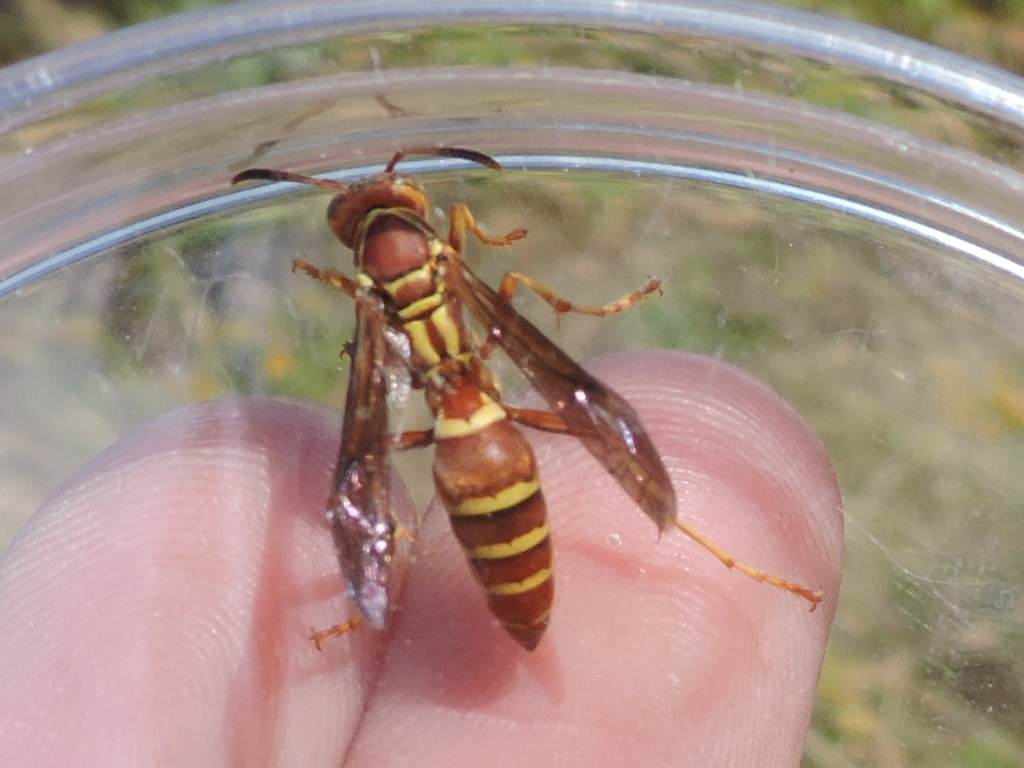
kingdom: Animalia
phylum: Arthropoda
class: Insecta
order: Hymenoptera
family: Eumenidae
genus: Polistes
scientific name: Polistes dorsalis
